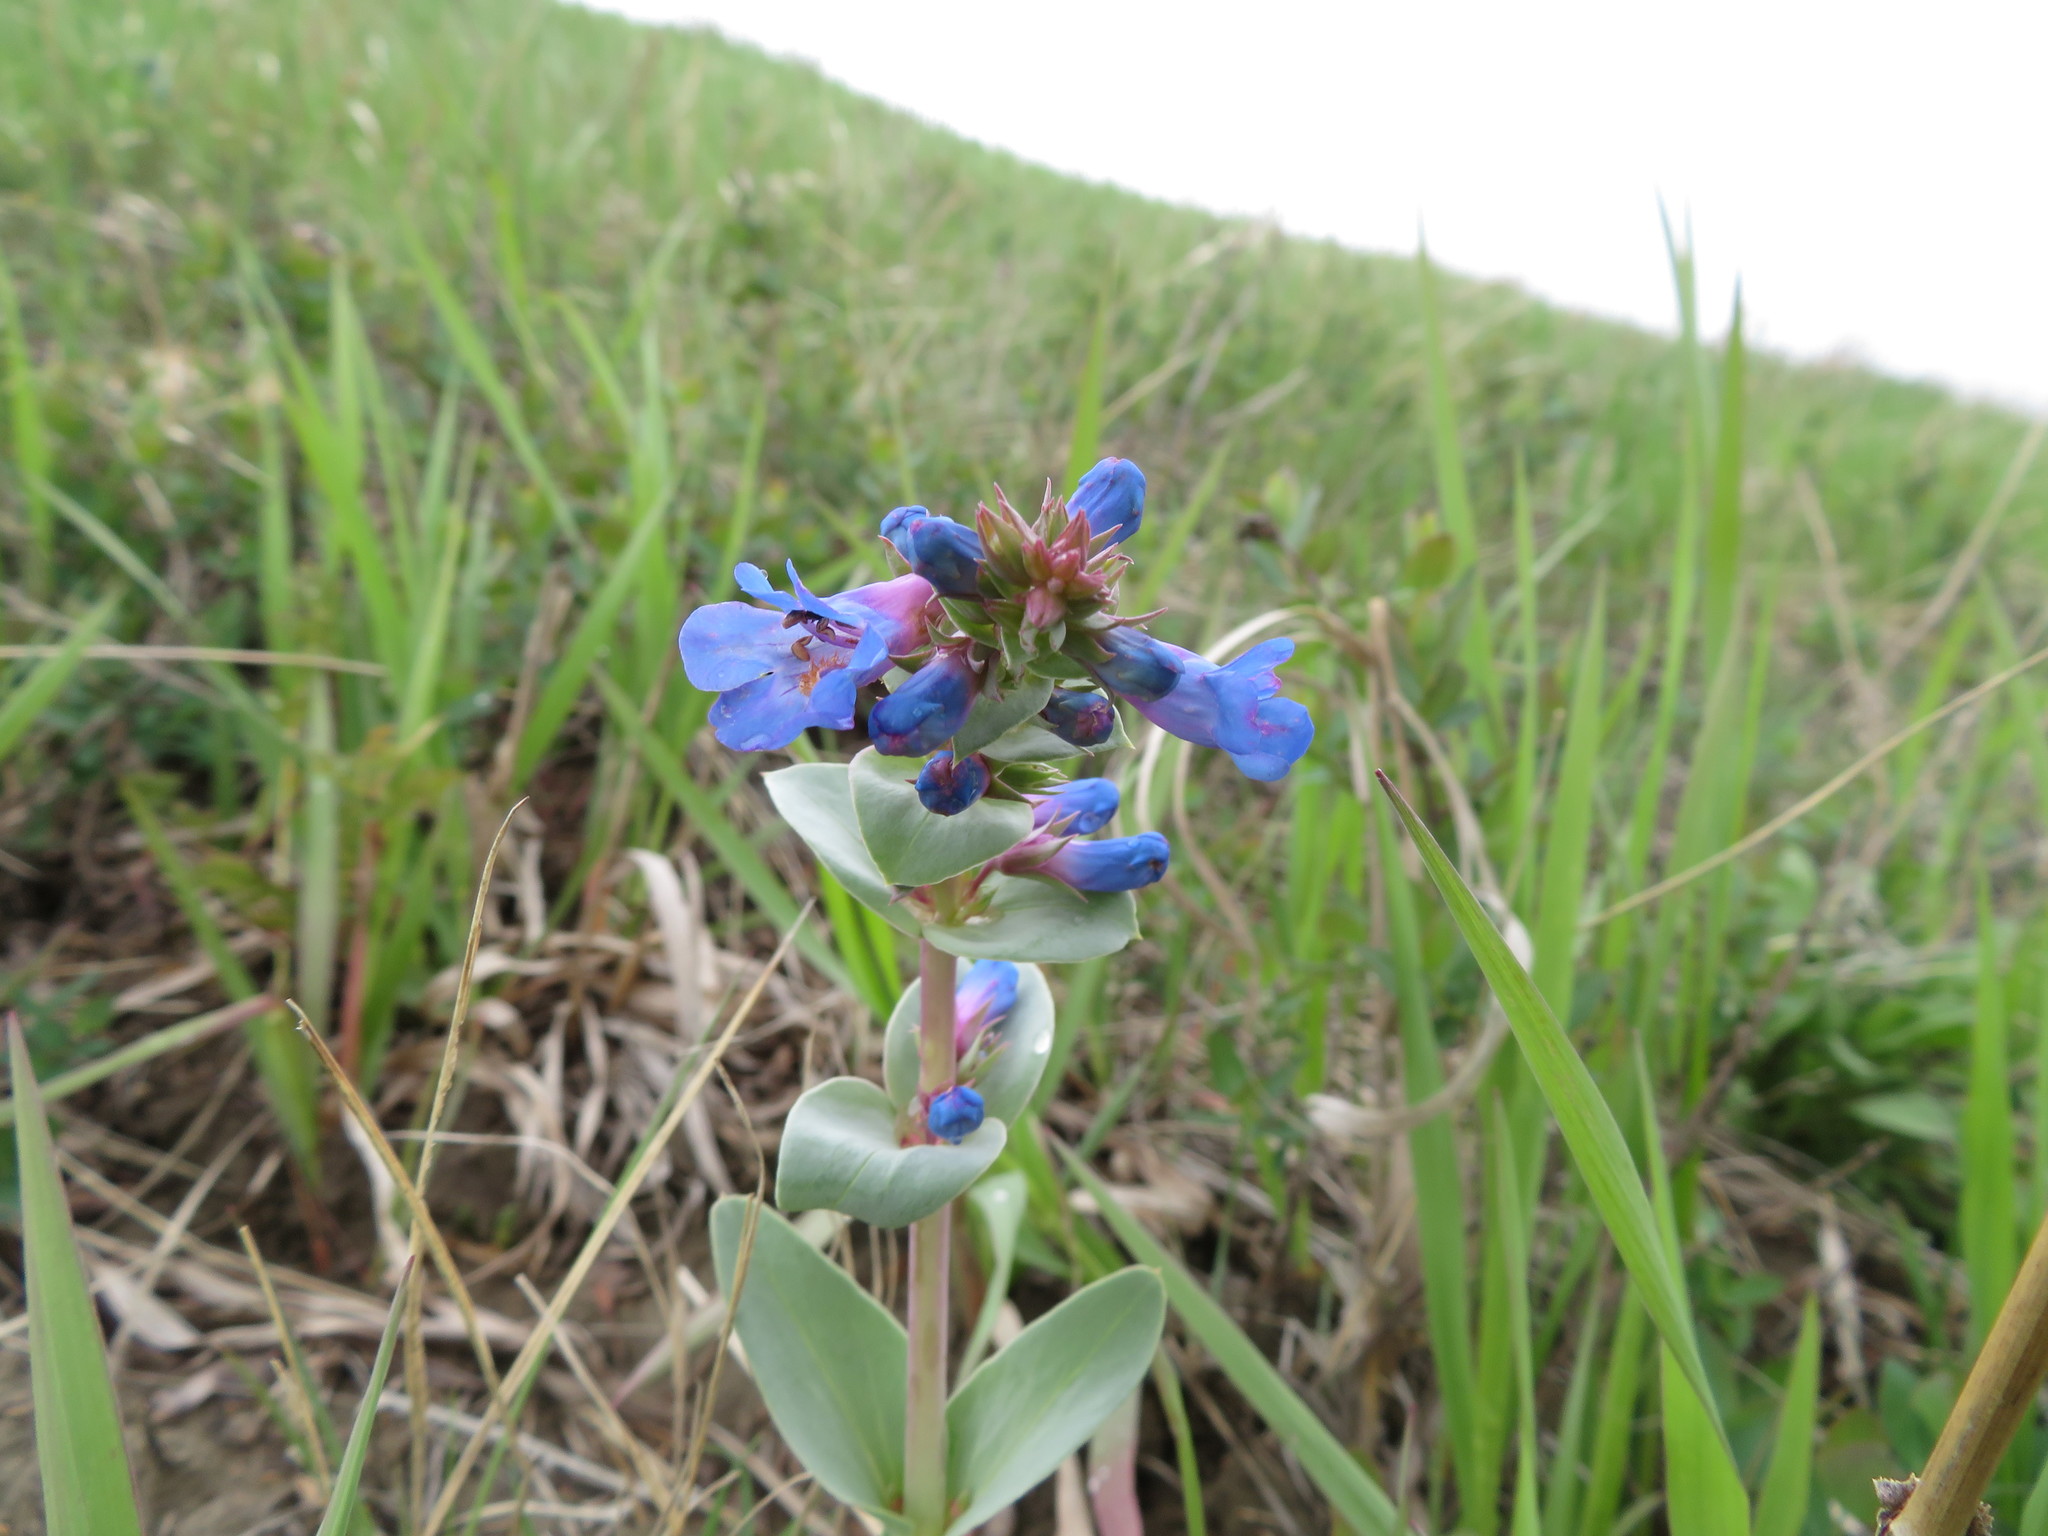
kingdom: Plantae
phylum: Tracheophyta
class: Magnoliopsida
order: Lamiales
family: Plantaginaceae
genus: Penstemon
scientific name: Penstemon nitidus
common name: Shining penstemon
